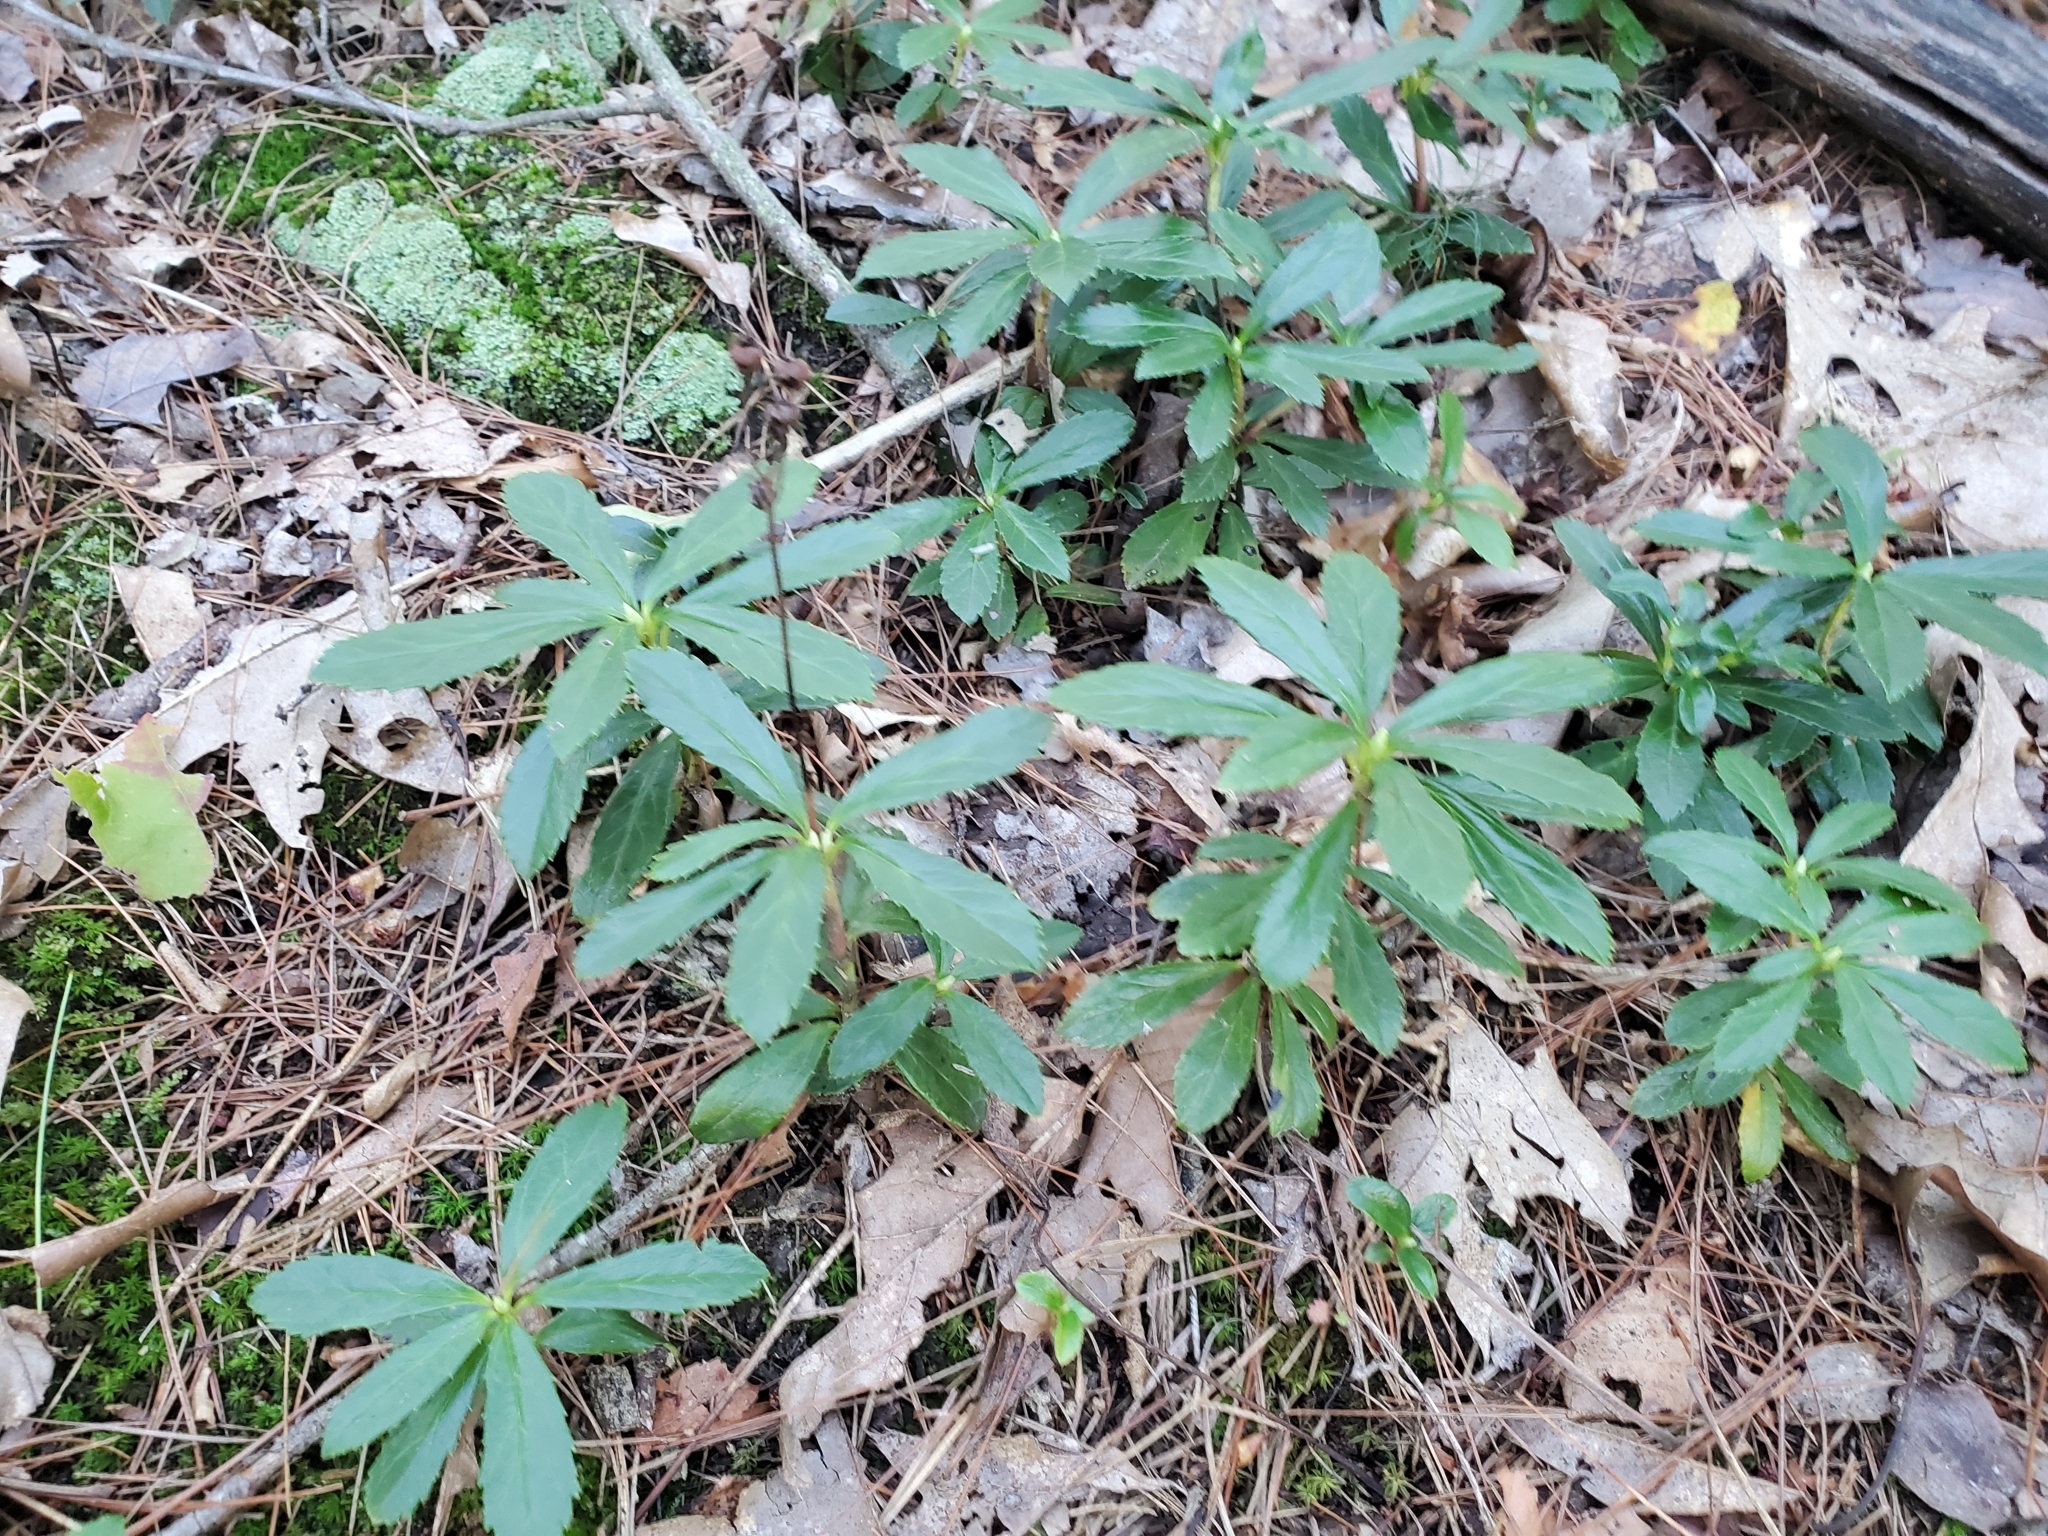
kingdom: Plantae
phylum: Tracheophyta
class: Magnoliopsida
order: Ericales
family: Ericaceae
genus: Chimaphila
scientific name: Chimaphila umbellata
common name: Pipsissewa
